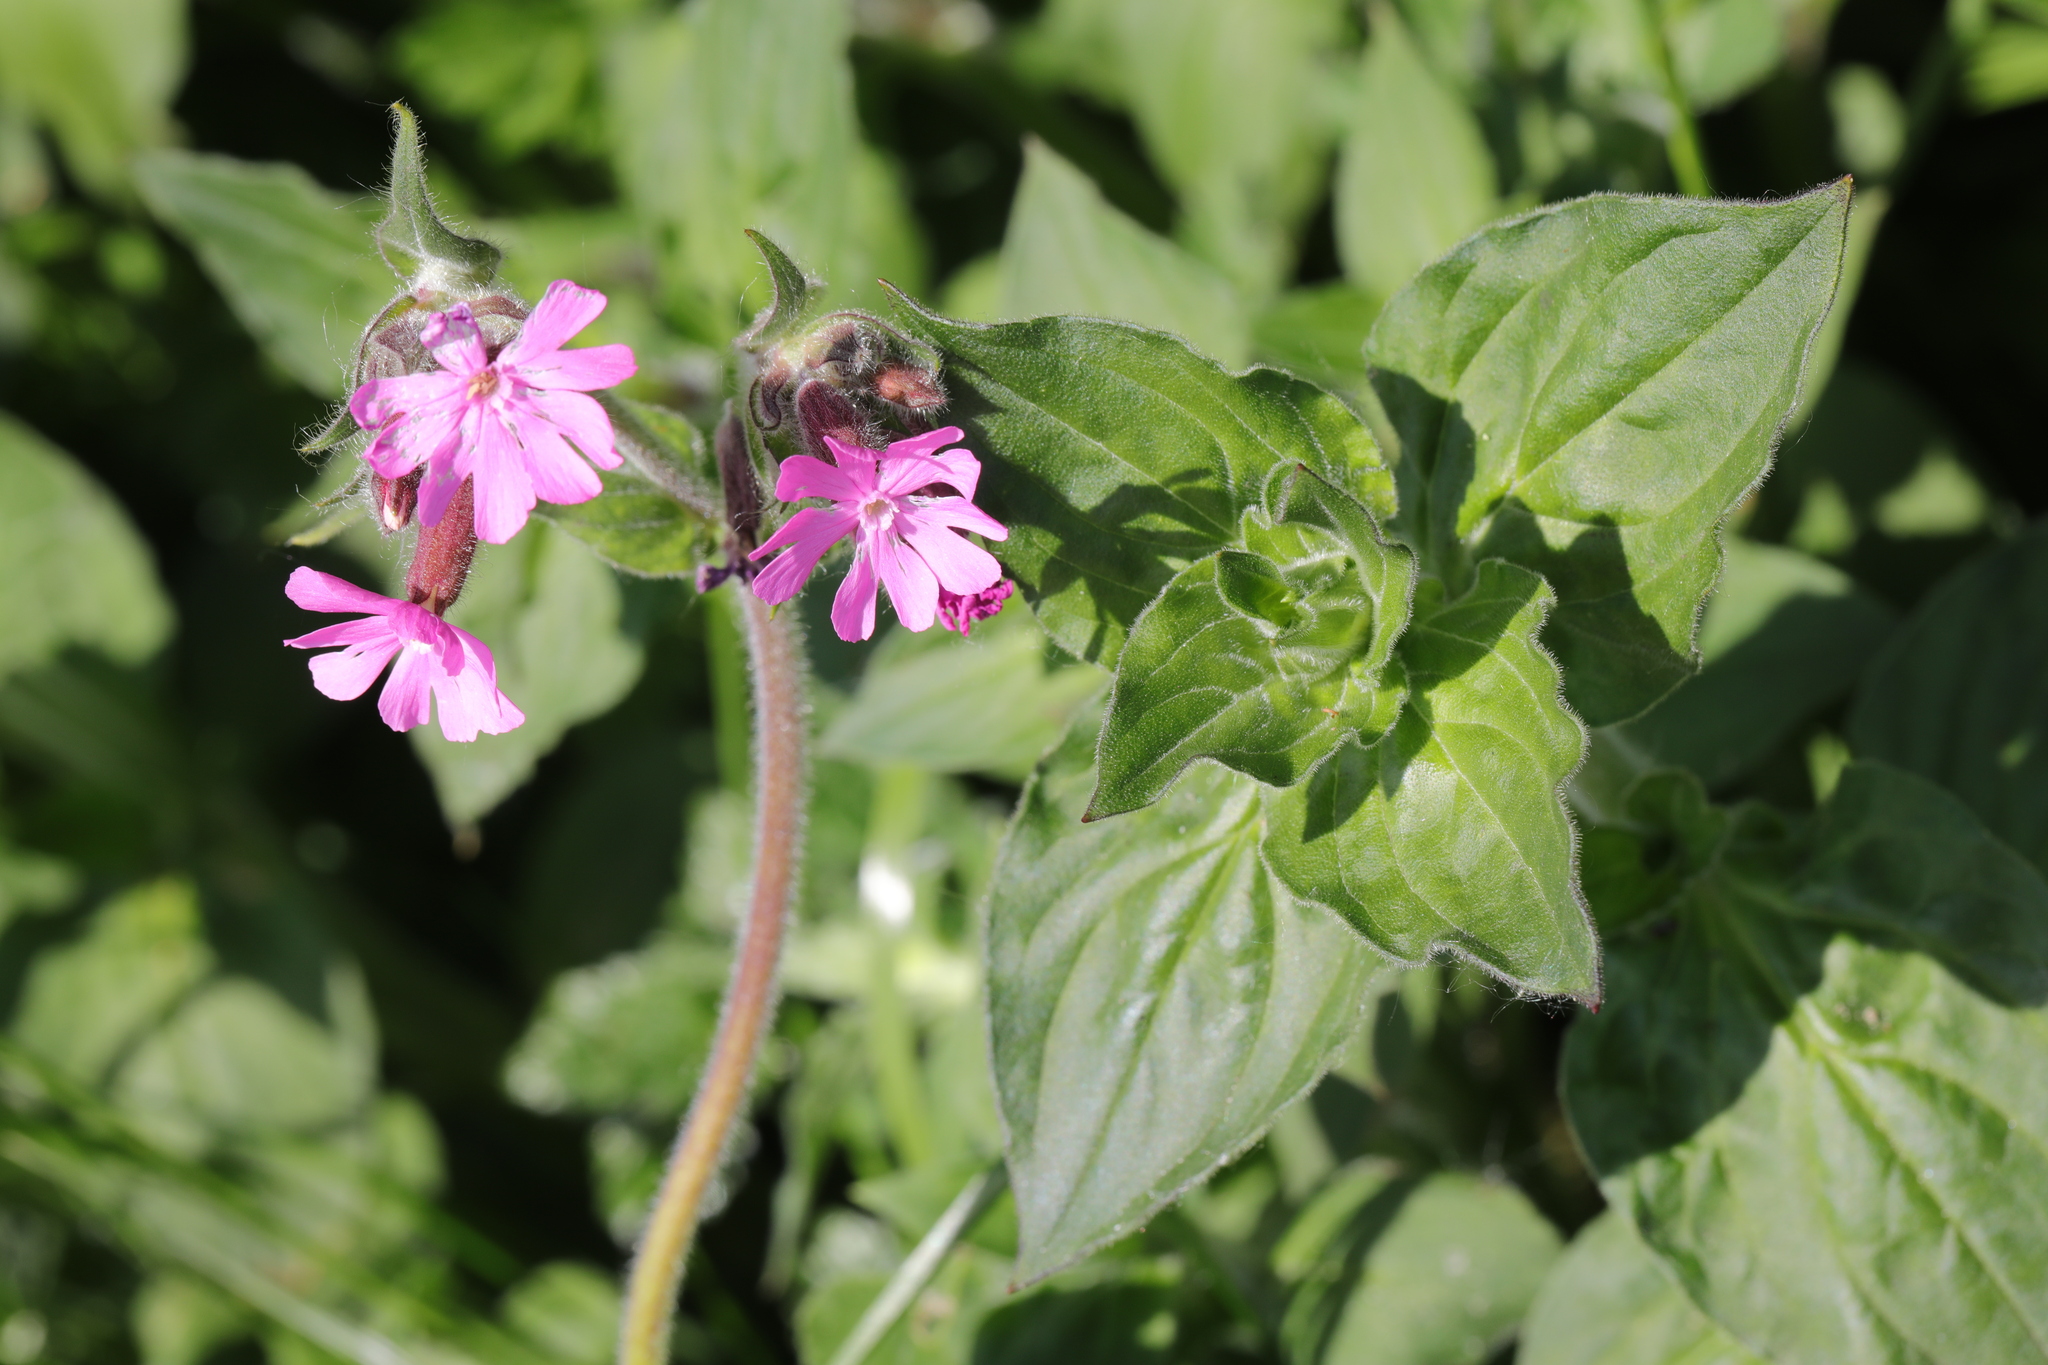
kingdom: Plantae
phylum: Tracheophyta
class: Magnoliopsida
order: Caryophyllales
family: Caryophyllaceae
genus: Silene
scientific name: Silene dioica
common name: Red campion
